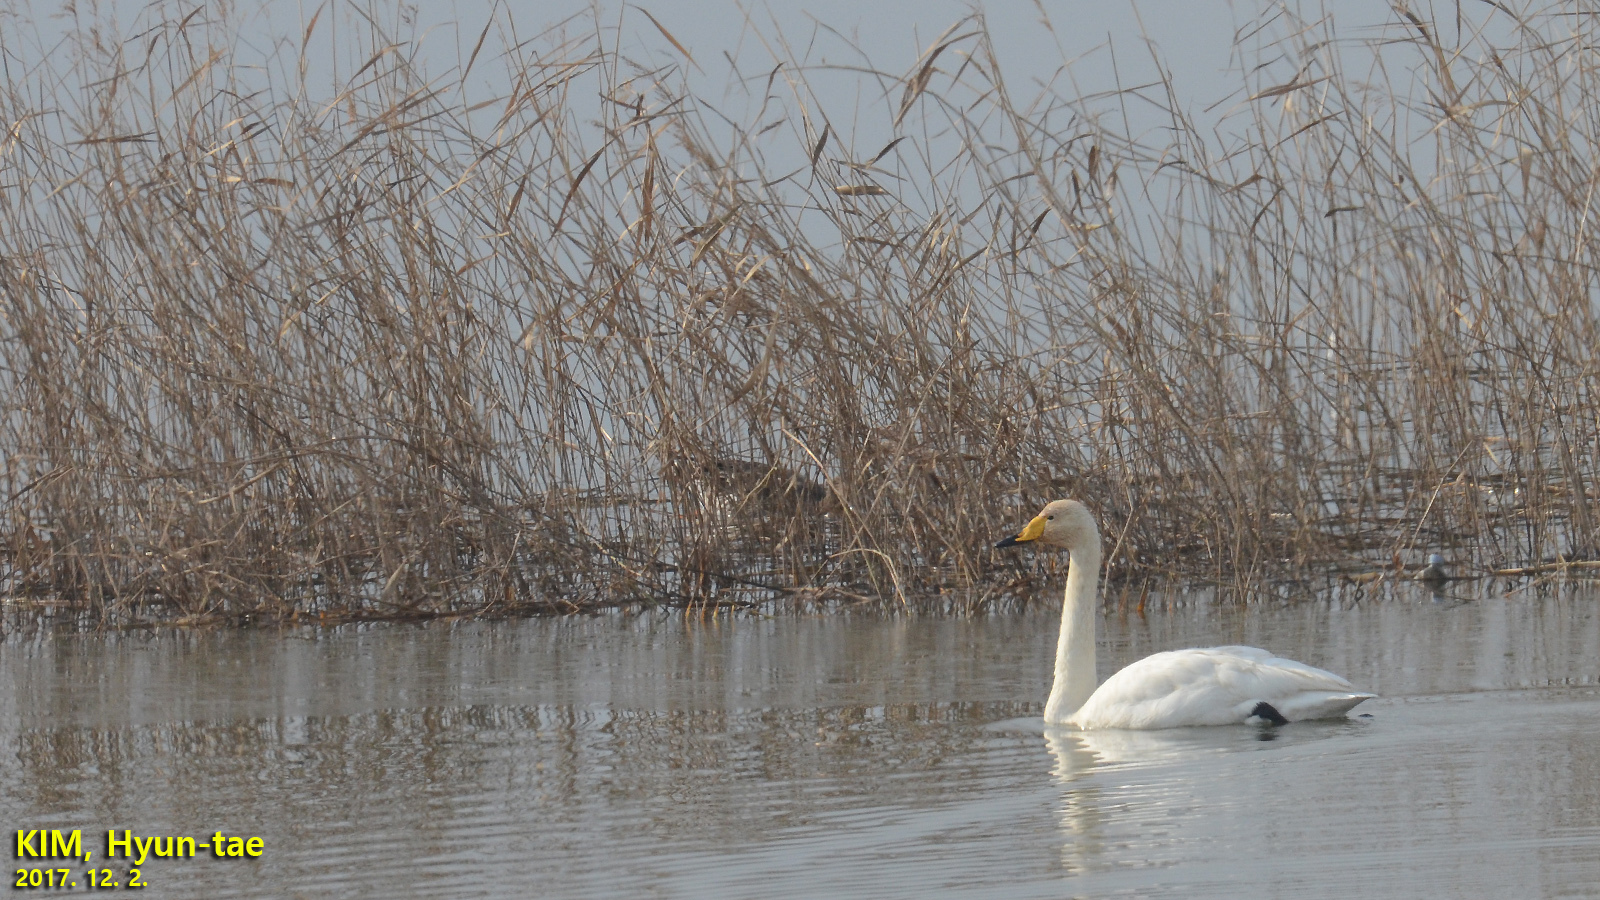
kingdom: Animalia
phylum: Chordata
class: Aves
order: Anseriformes
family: Anatidae
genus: Cygnus
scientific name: Cygnus cygnus
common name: Whooper swan
